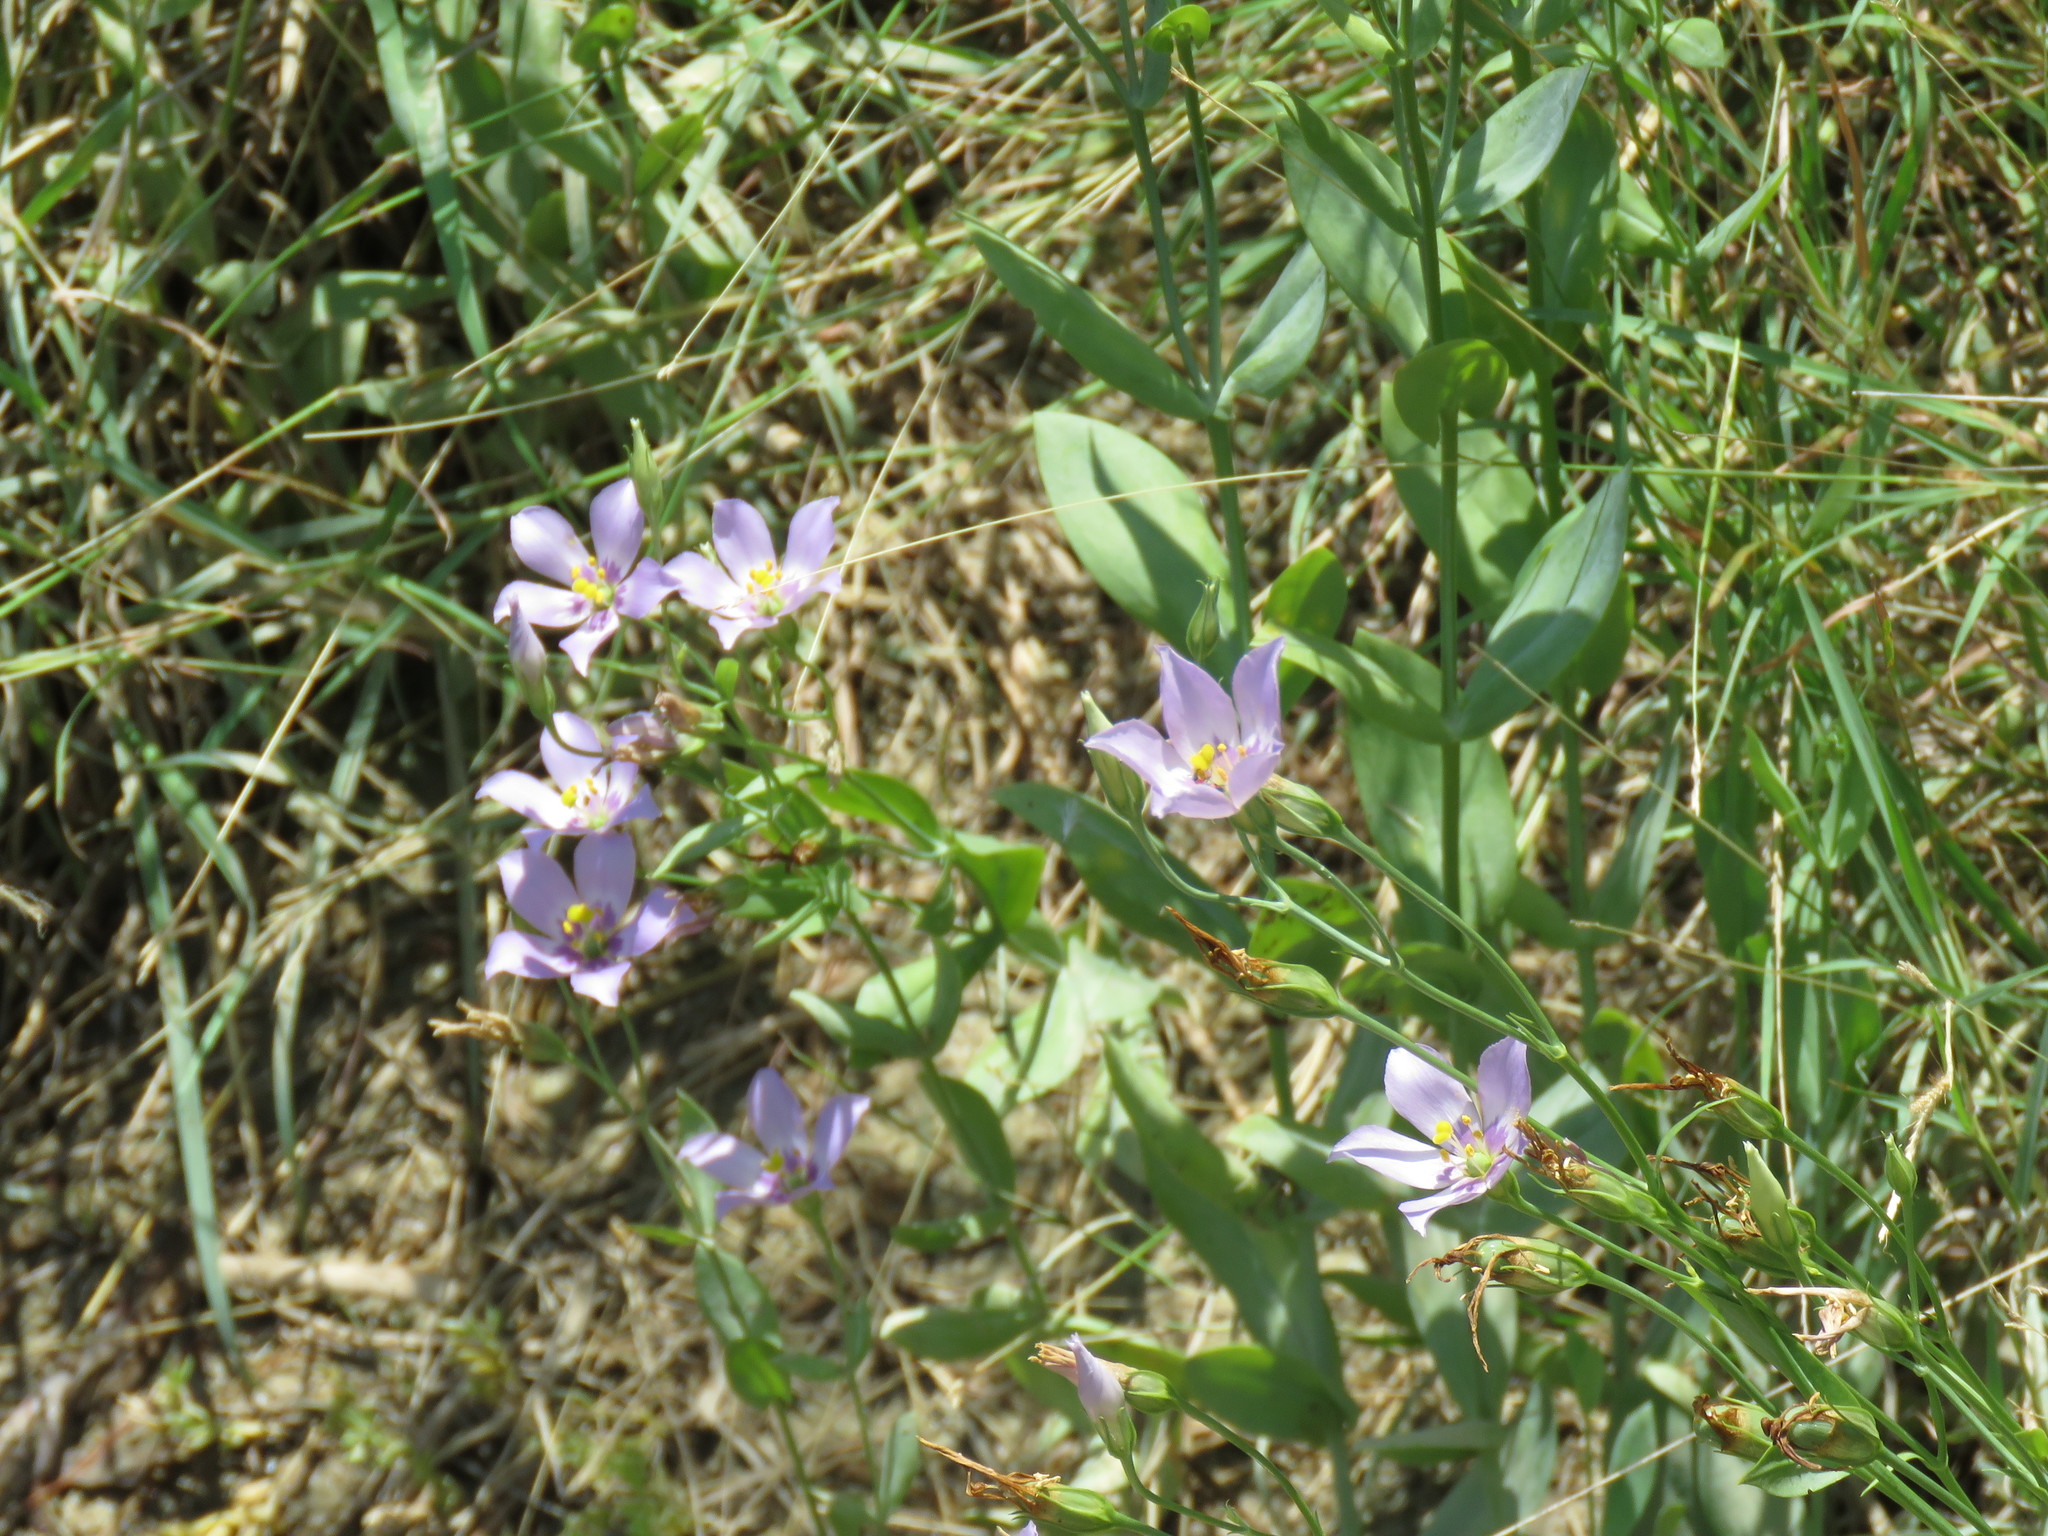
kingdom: Plantae
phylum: Tracheophyta
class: Magnoliopsida
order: Gentianales
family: Gentianaceae
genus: Eustoma
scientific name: Eustoma exaltatum
